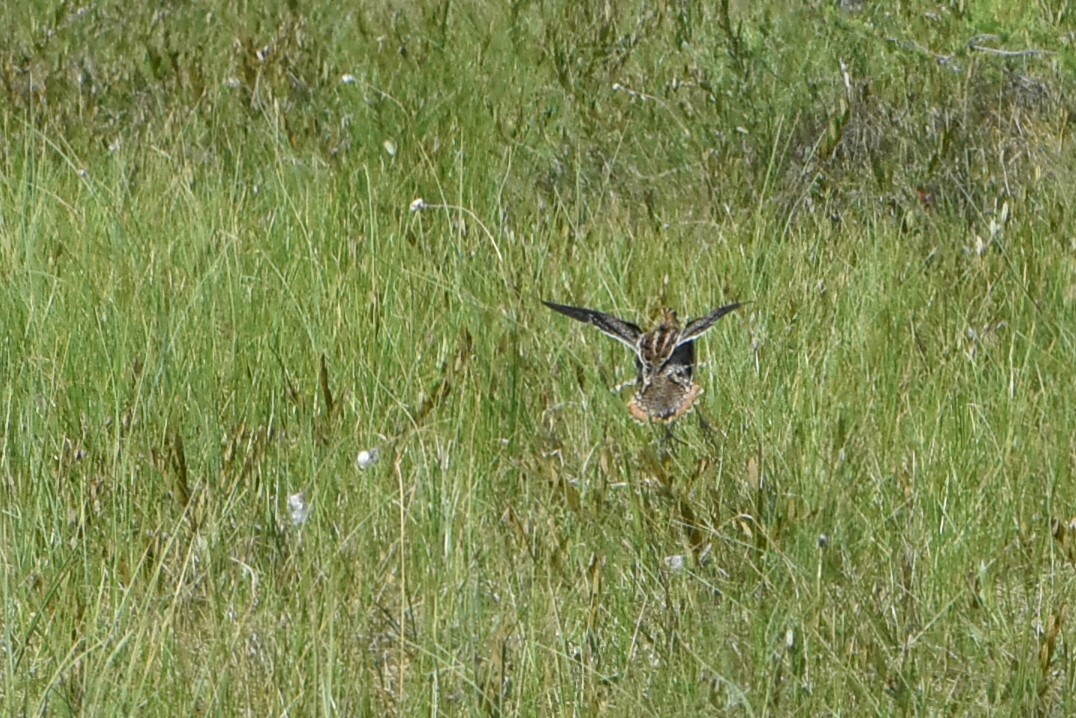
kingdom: Animalia
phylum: Chordata
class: Aves
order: Charadriiformes
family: Scolopacidae
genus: Gallinago
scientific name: Gallinago gallinago
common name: Common snipe
